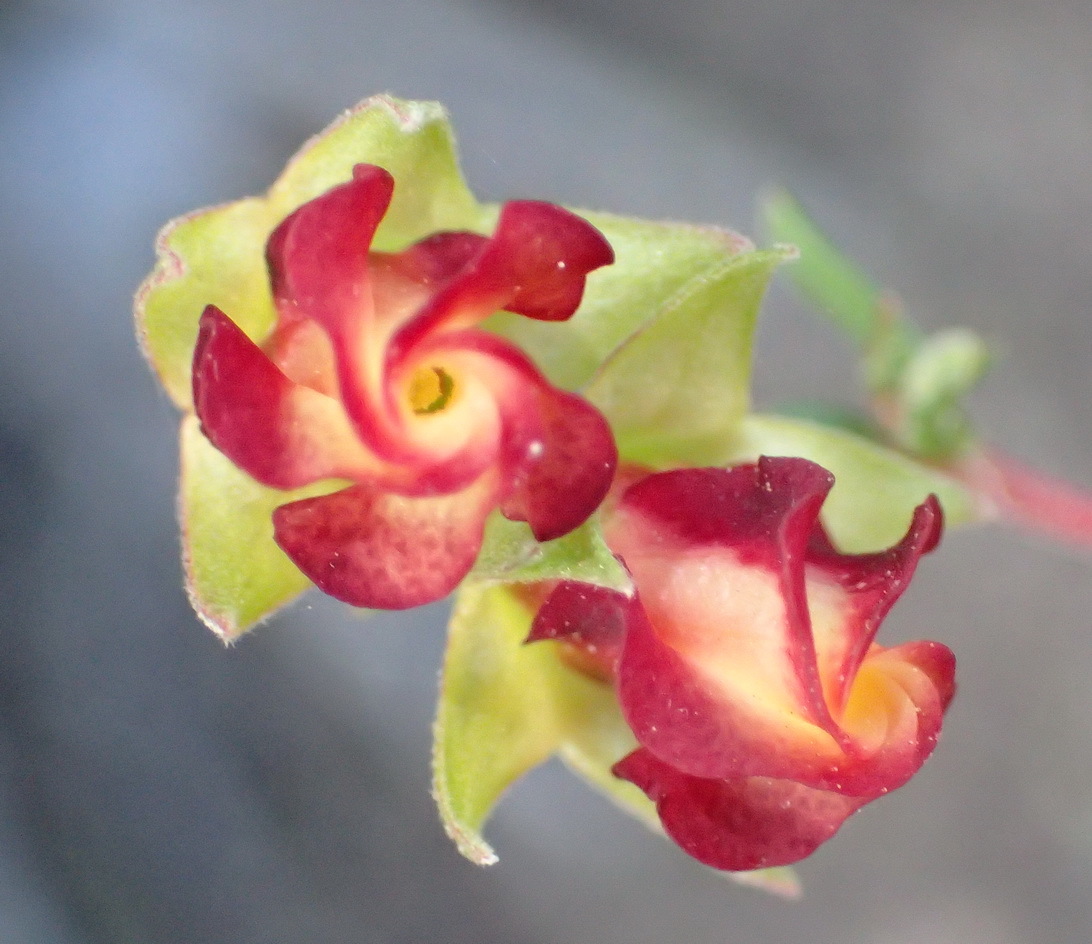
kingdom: Plantae
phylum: Tracheophyta
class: Magnoliopsida
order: Malvales
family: Malvaceae
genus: Hermannia
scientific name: Hermannia filifolia
